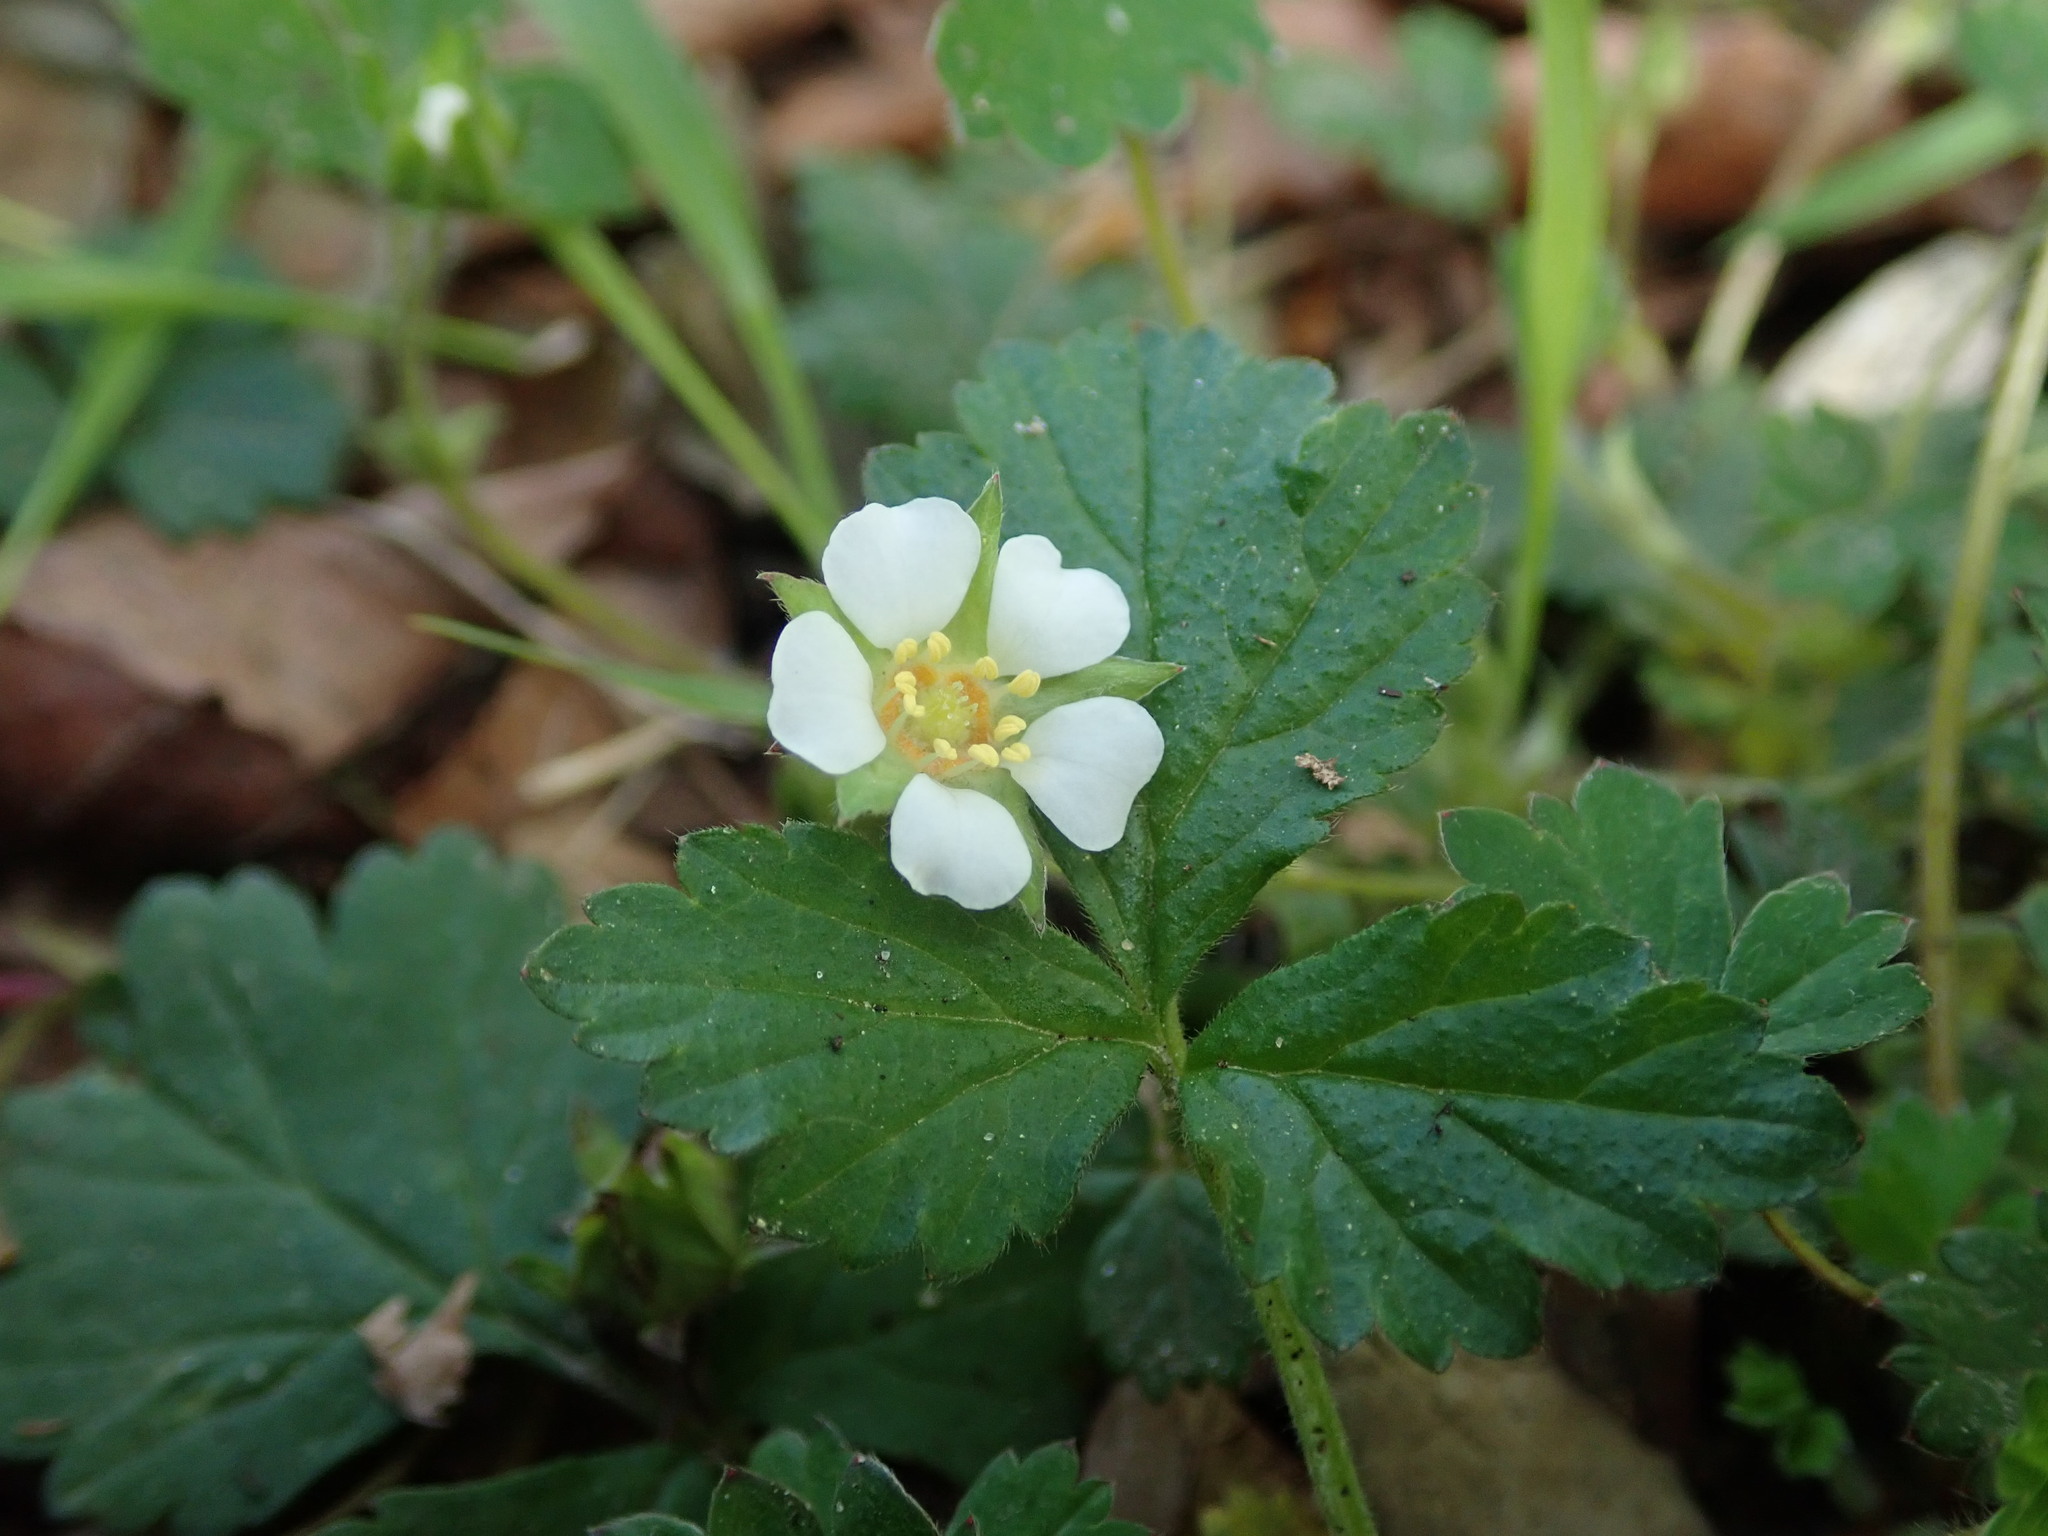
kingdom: Plantae
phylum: Tracheophyta
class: Magnoliopsida
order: Rosales
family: Rosaceae
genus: Potentilla
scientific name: Potentilla sterilis
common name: Barren strawberry
